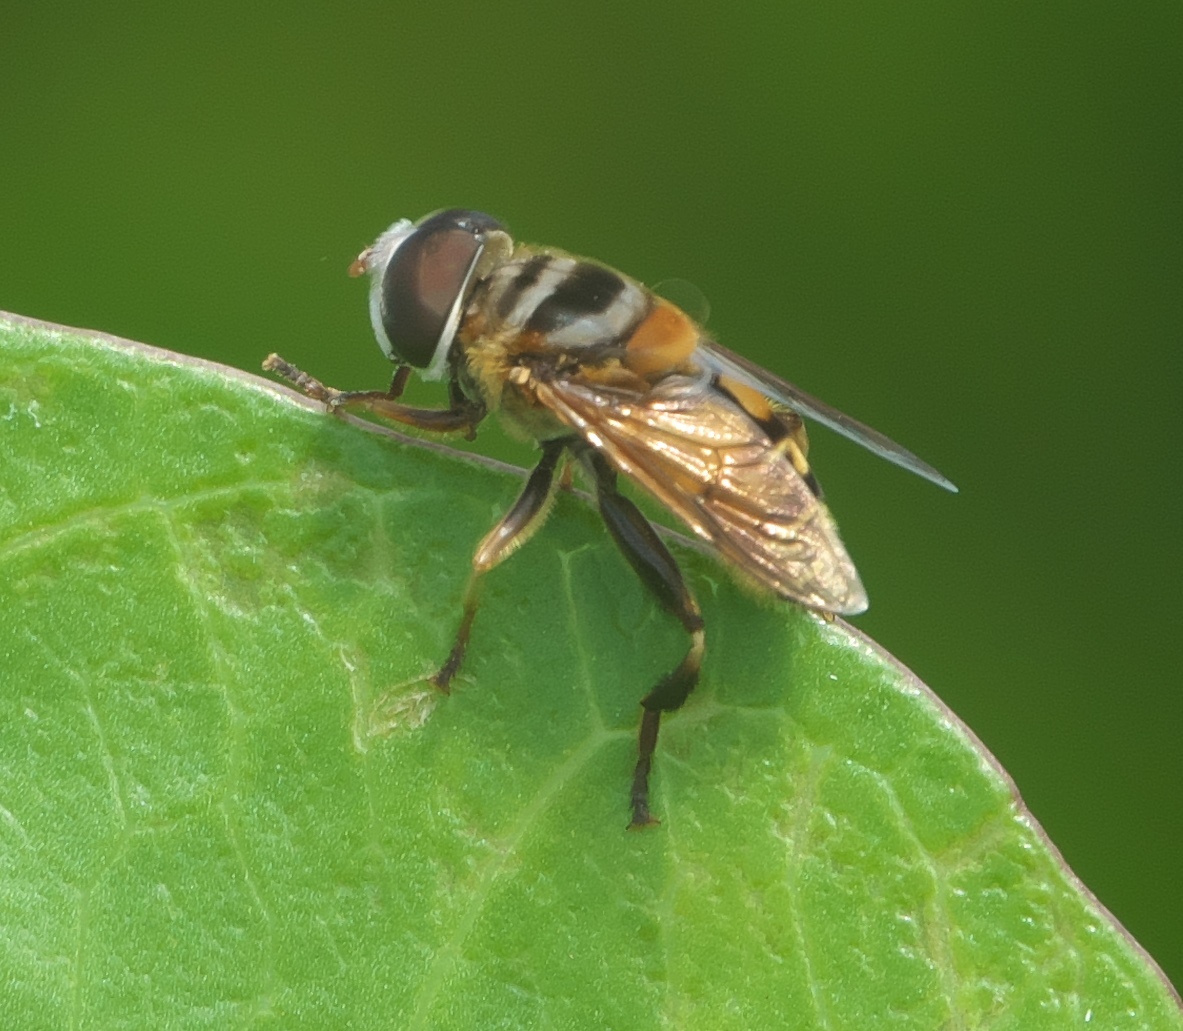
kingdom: Animalia
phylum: Arthropoda
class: Insecta
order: Diptera
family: Syrphidae
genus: Palpada
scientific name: Palpada vinetorum
